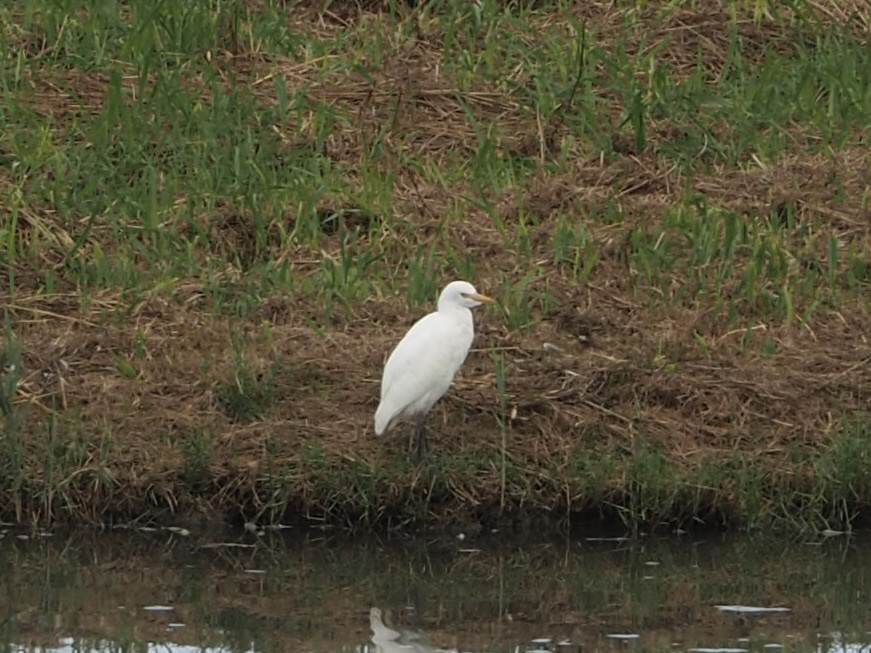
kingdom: Animalia
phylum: Chordata
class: Aves
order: Pelecaniformes
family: Ardeidae
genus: Bubulcus
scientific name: Bubulcus ibis
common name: Cattle egret
